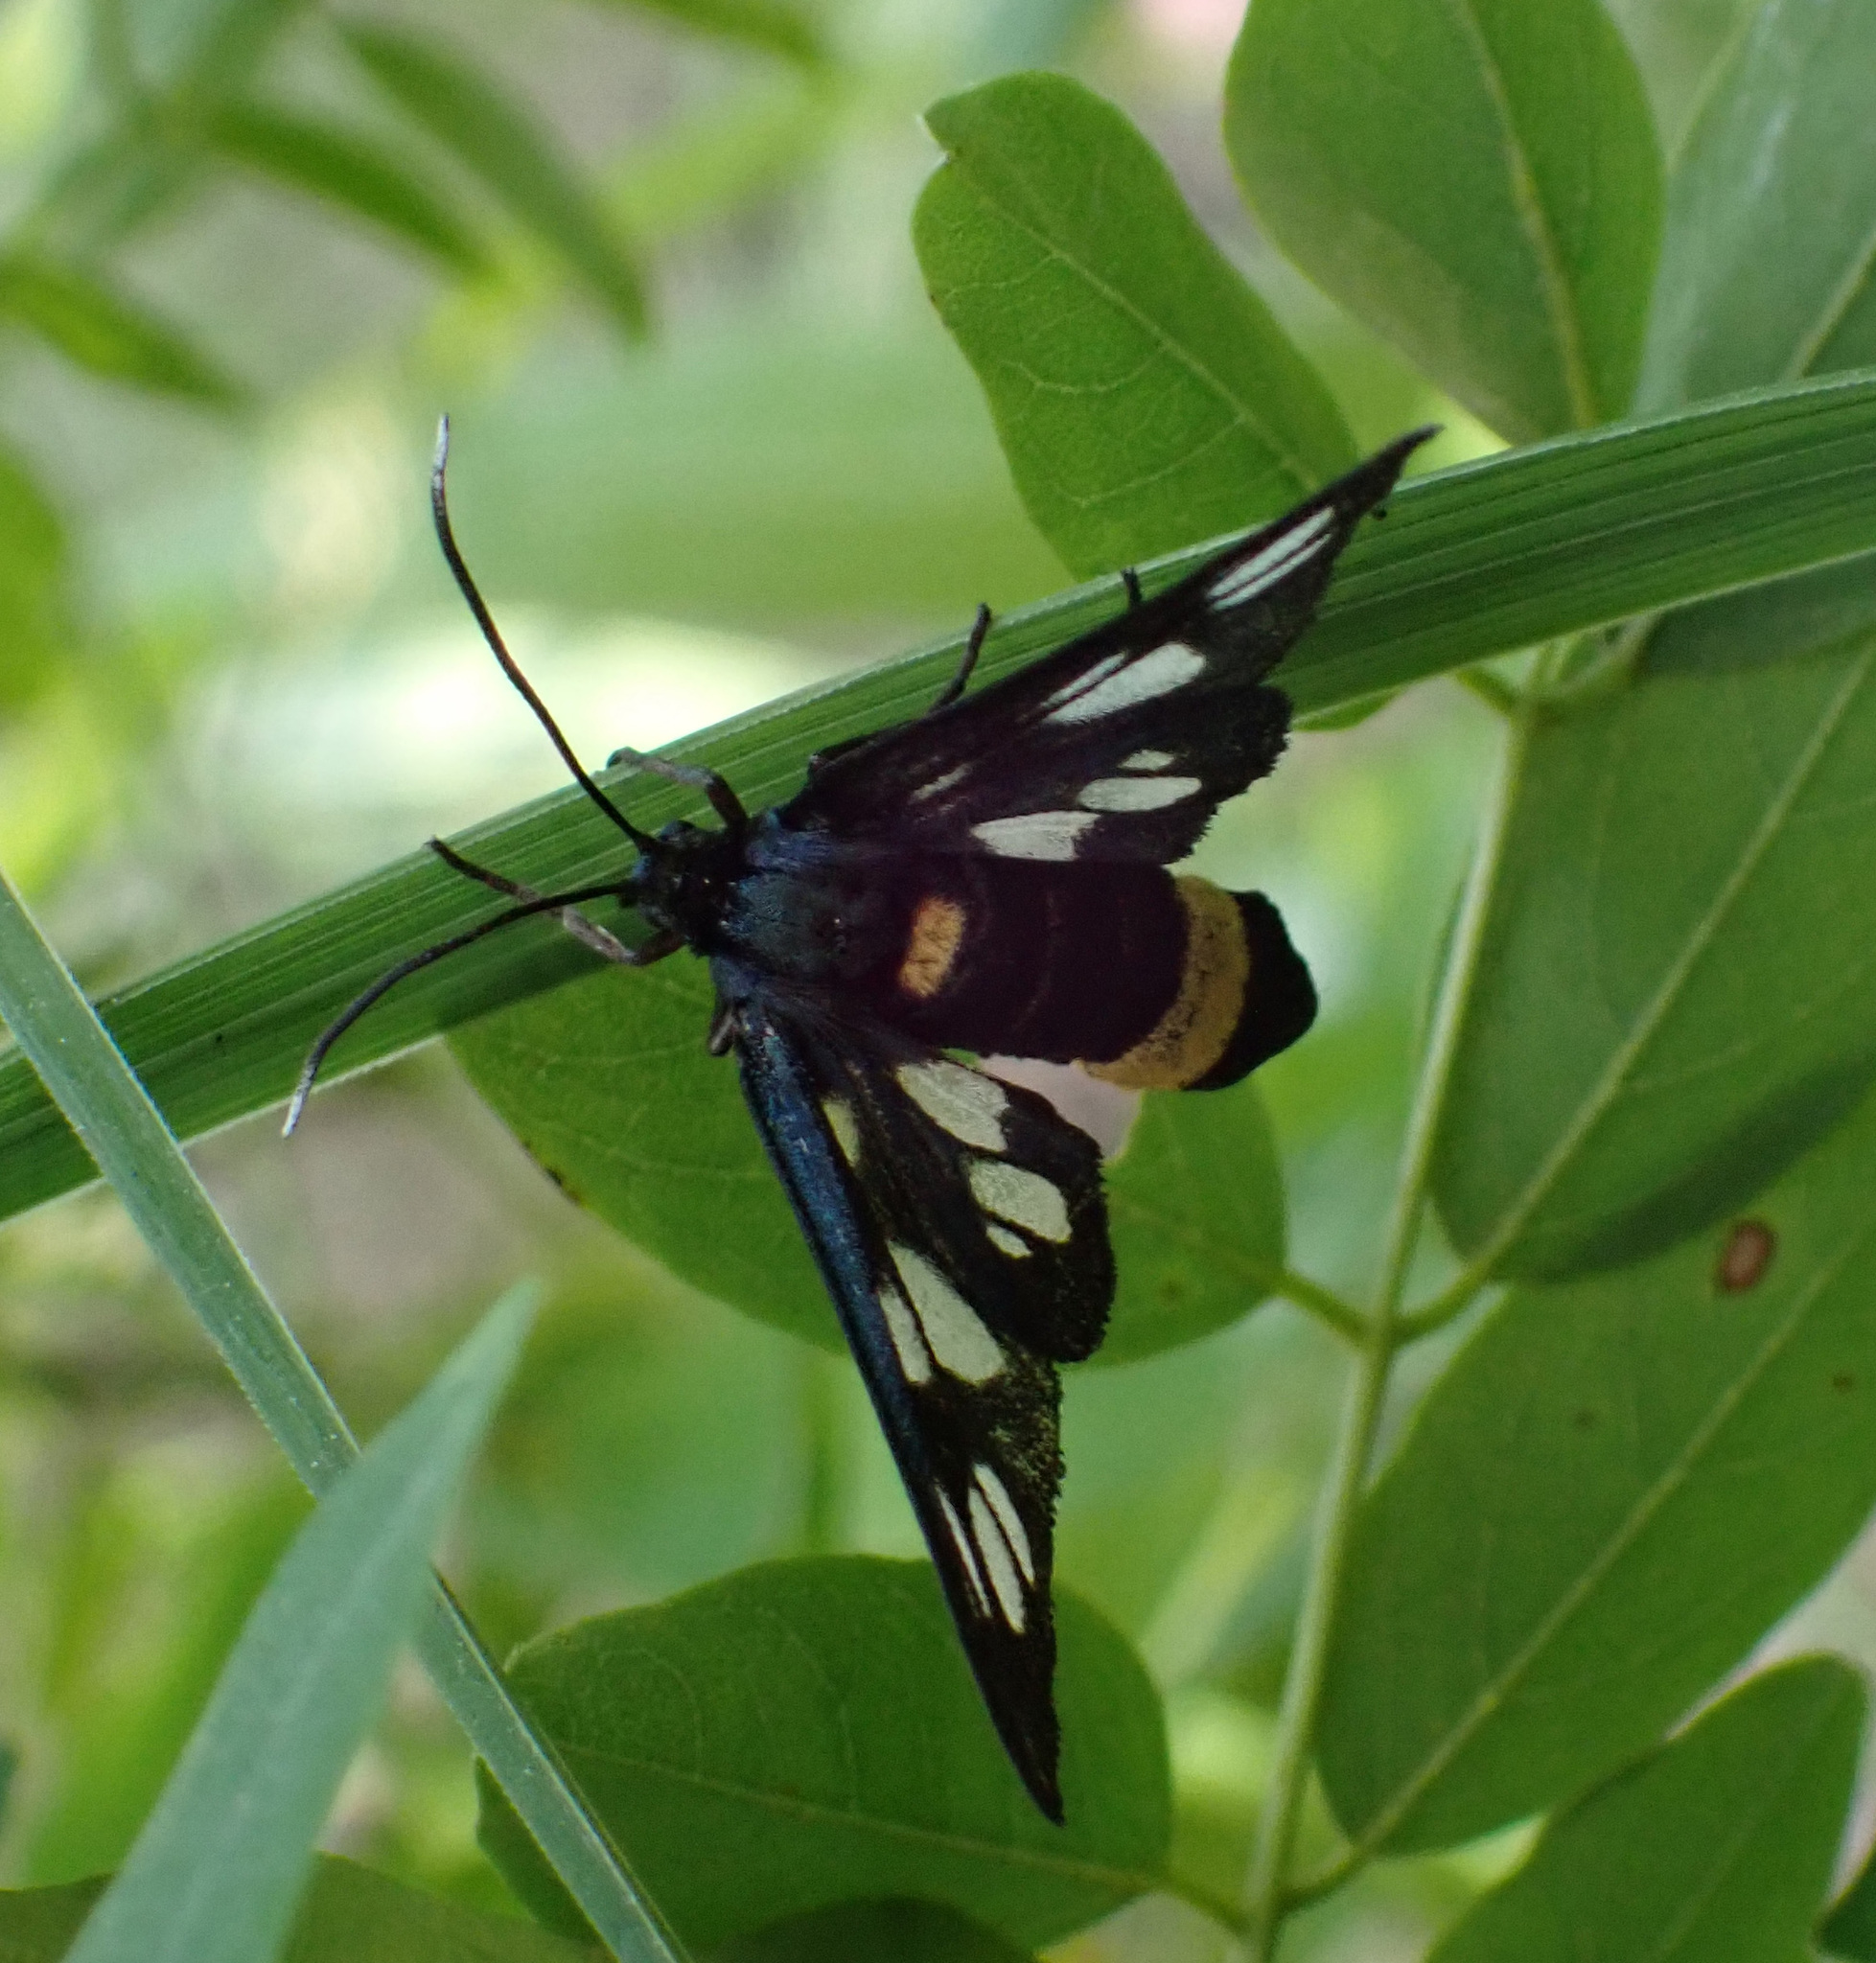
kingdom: Animalia
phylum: Arthropoda
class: Insecta
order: Lepidoptera
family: Erebidae
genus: Amata
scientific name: Amata phegea
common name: Nine-spotted
